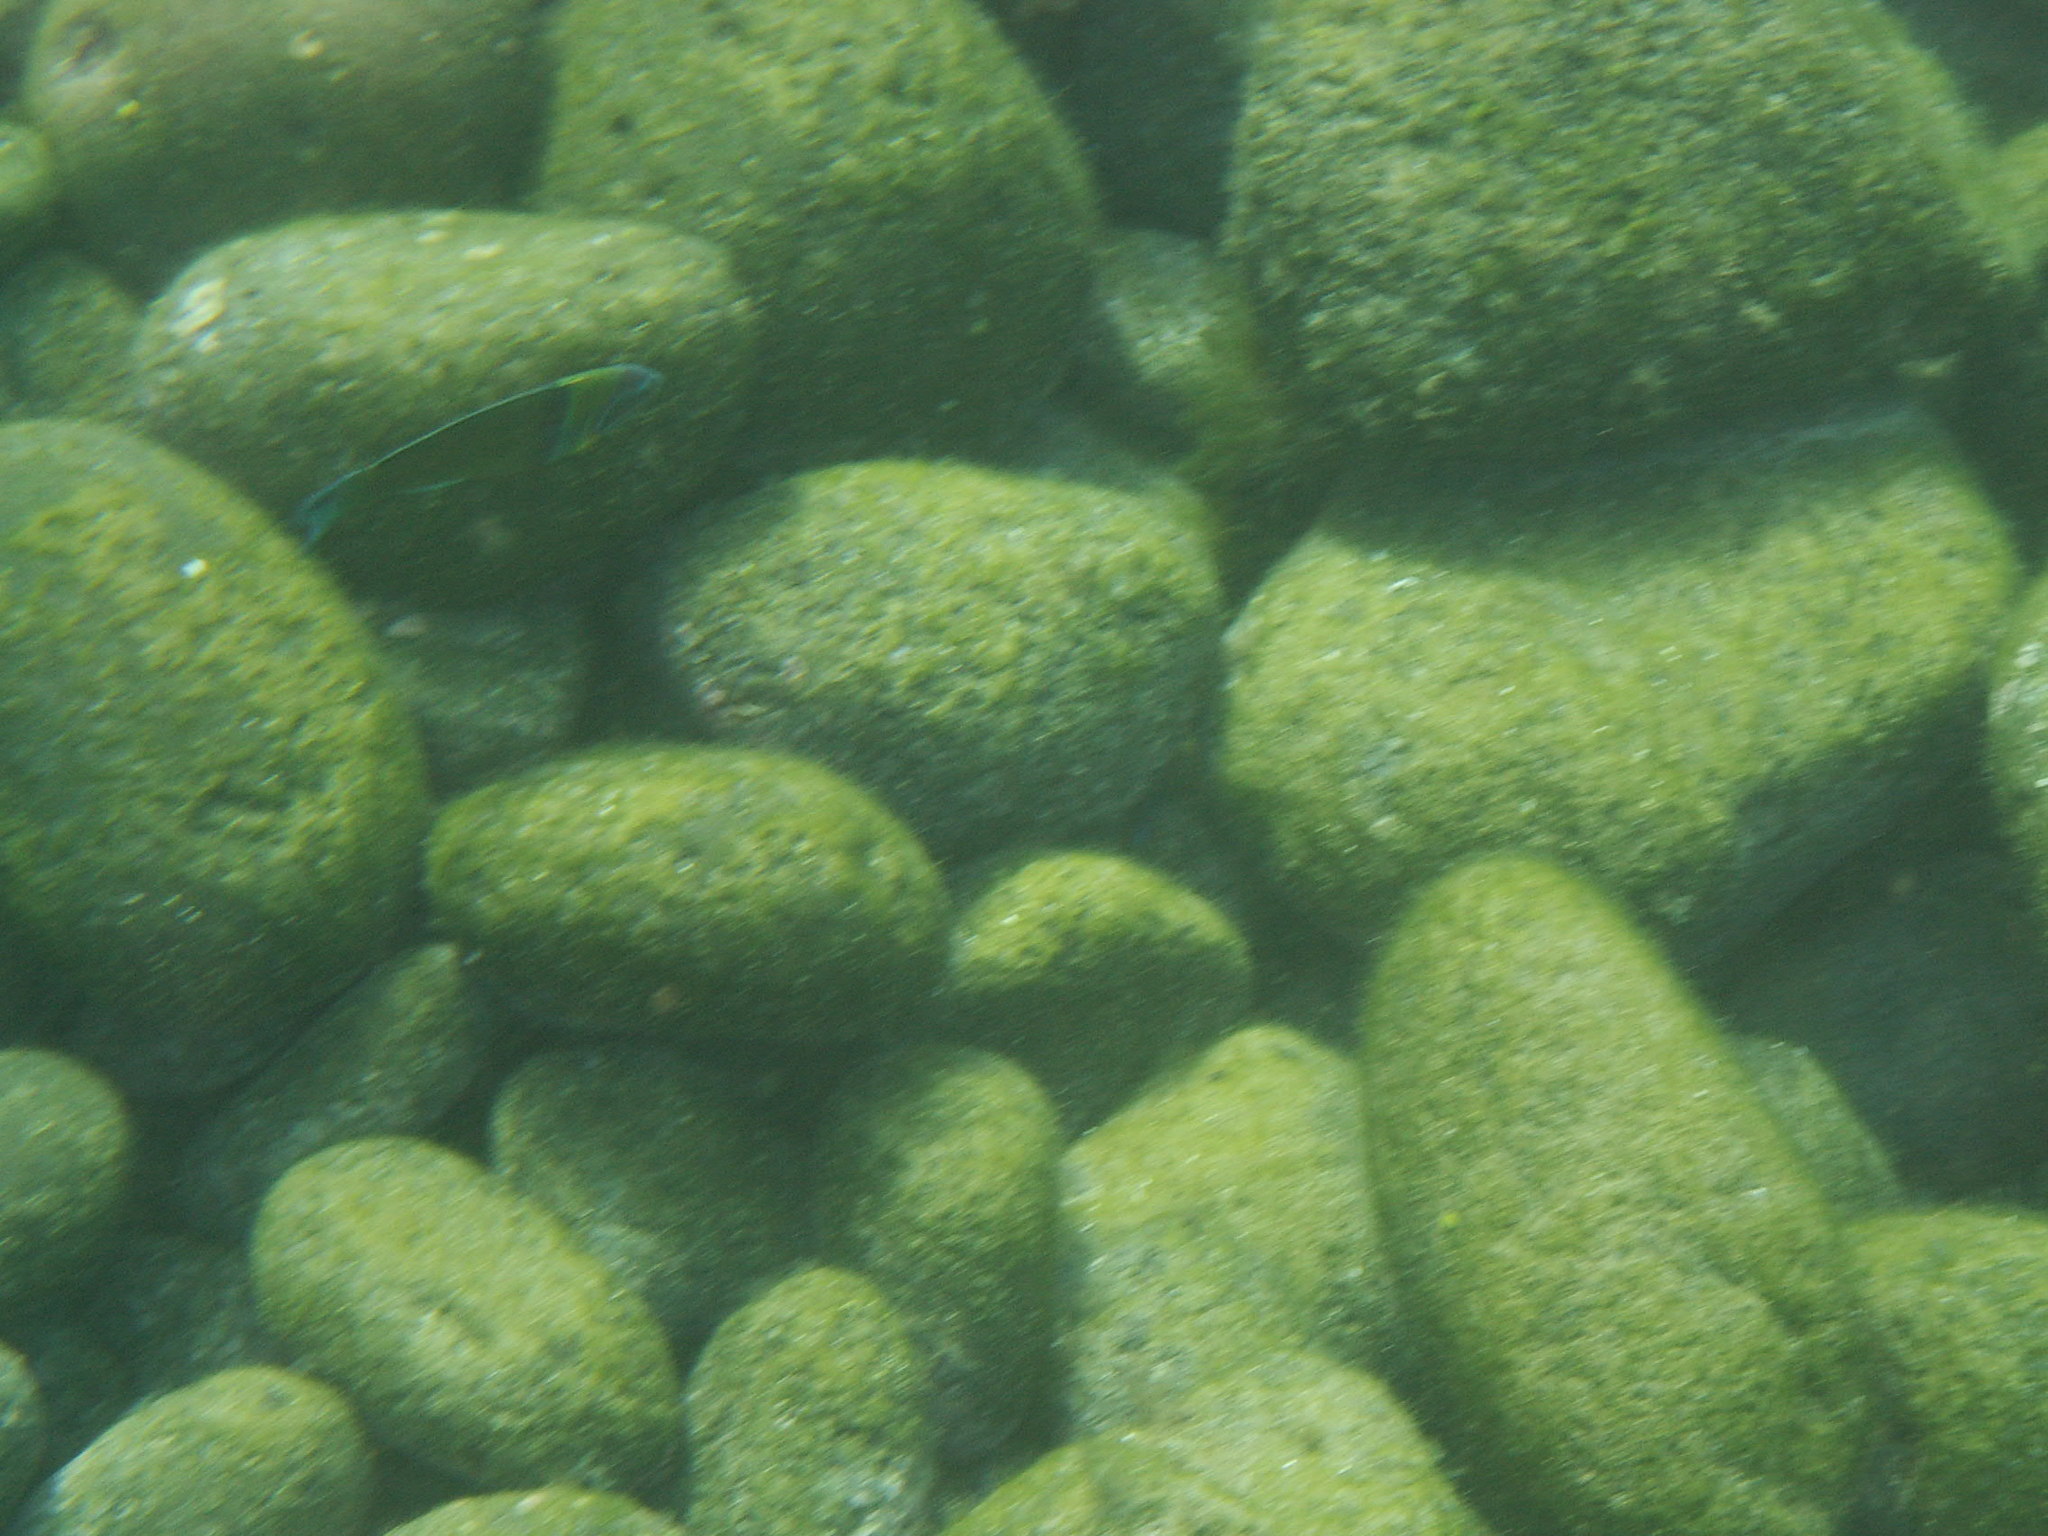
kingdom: Animalia
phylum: Chordata
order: Perciformes
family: Labridae
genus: Thalassoma
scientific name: Thalassoma pavo
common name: Ornate wrasse
